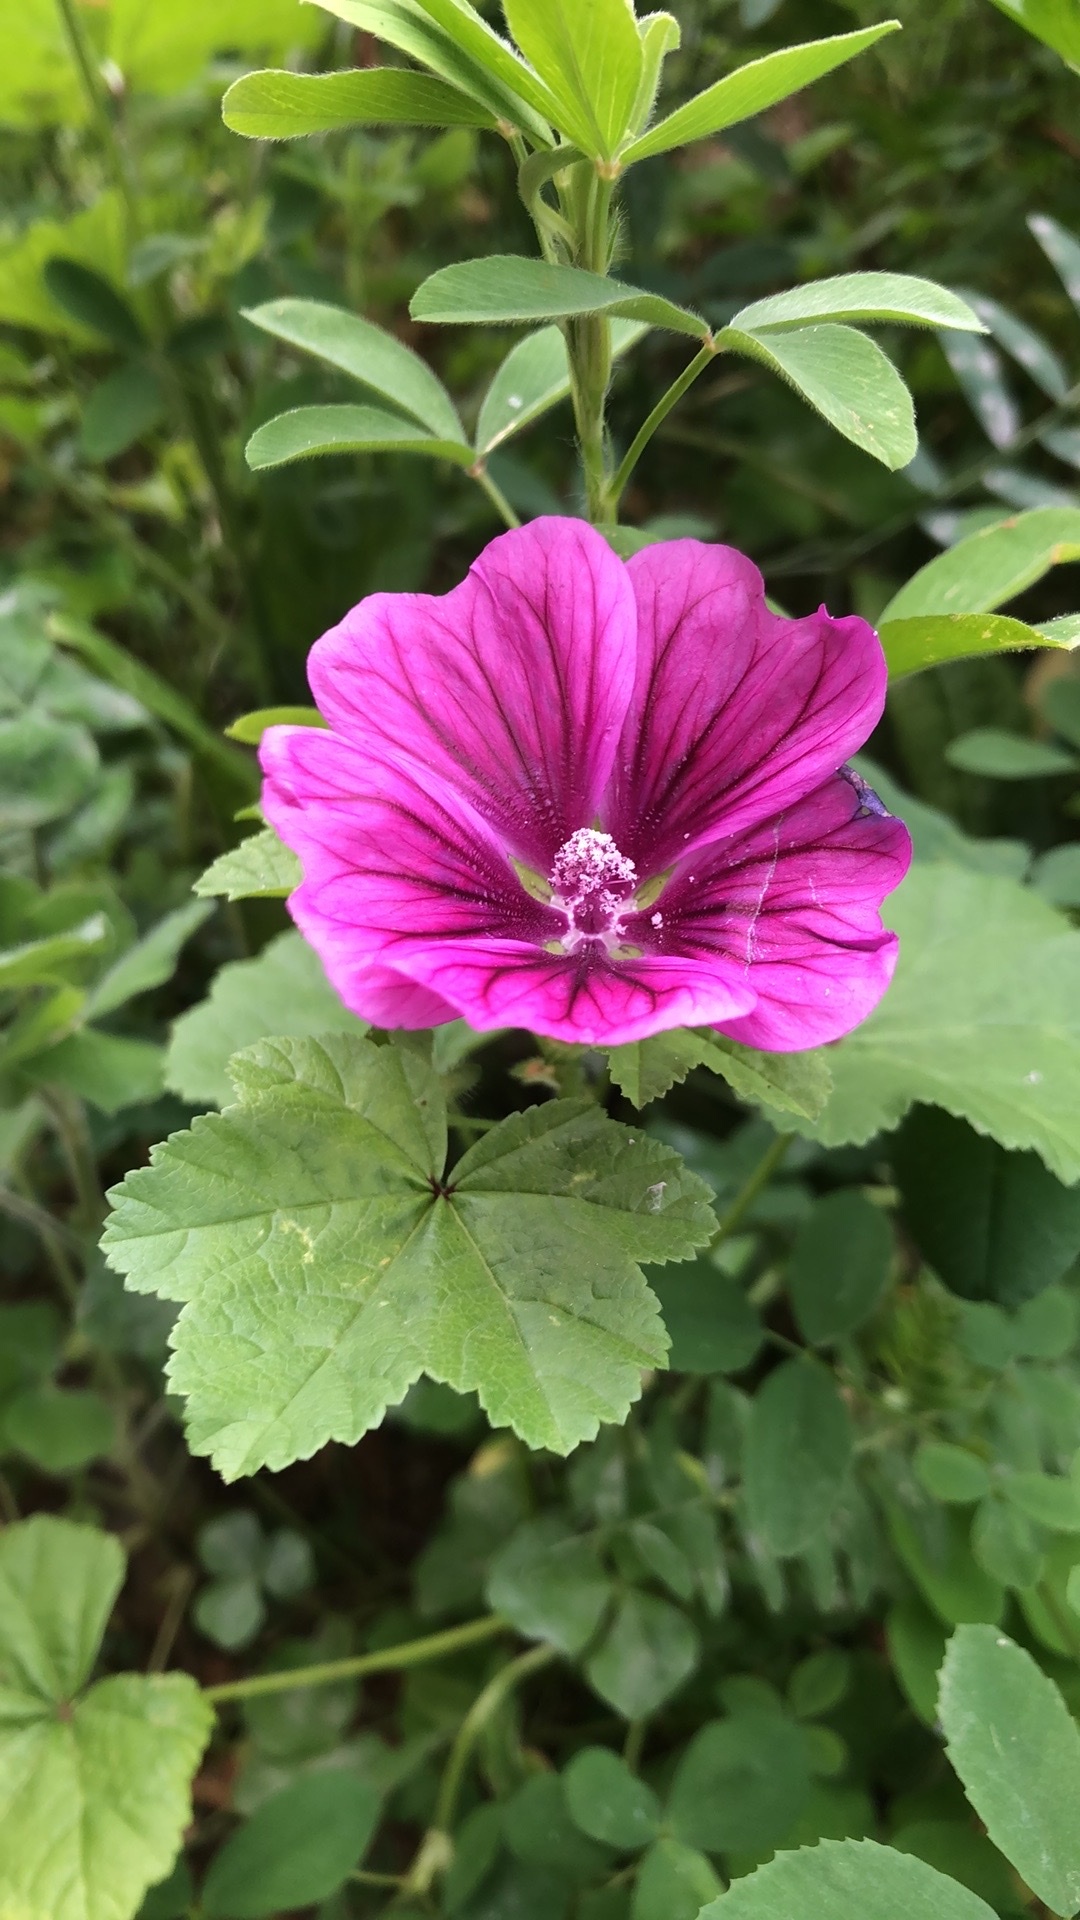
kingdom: Plantae
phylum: Tracheophyta
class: Magnoliopsida
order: Malvales
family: Malvaceae
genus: Malva
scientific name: Malva sylvestris
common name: Common mallow
